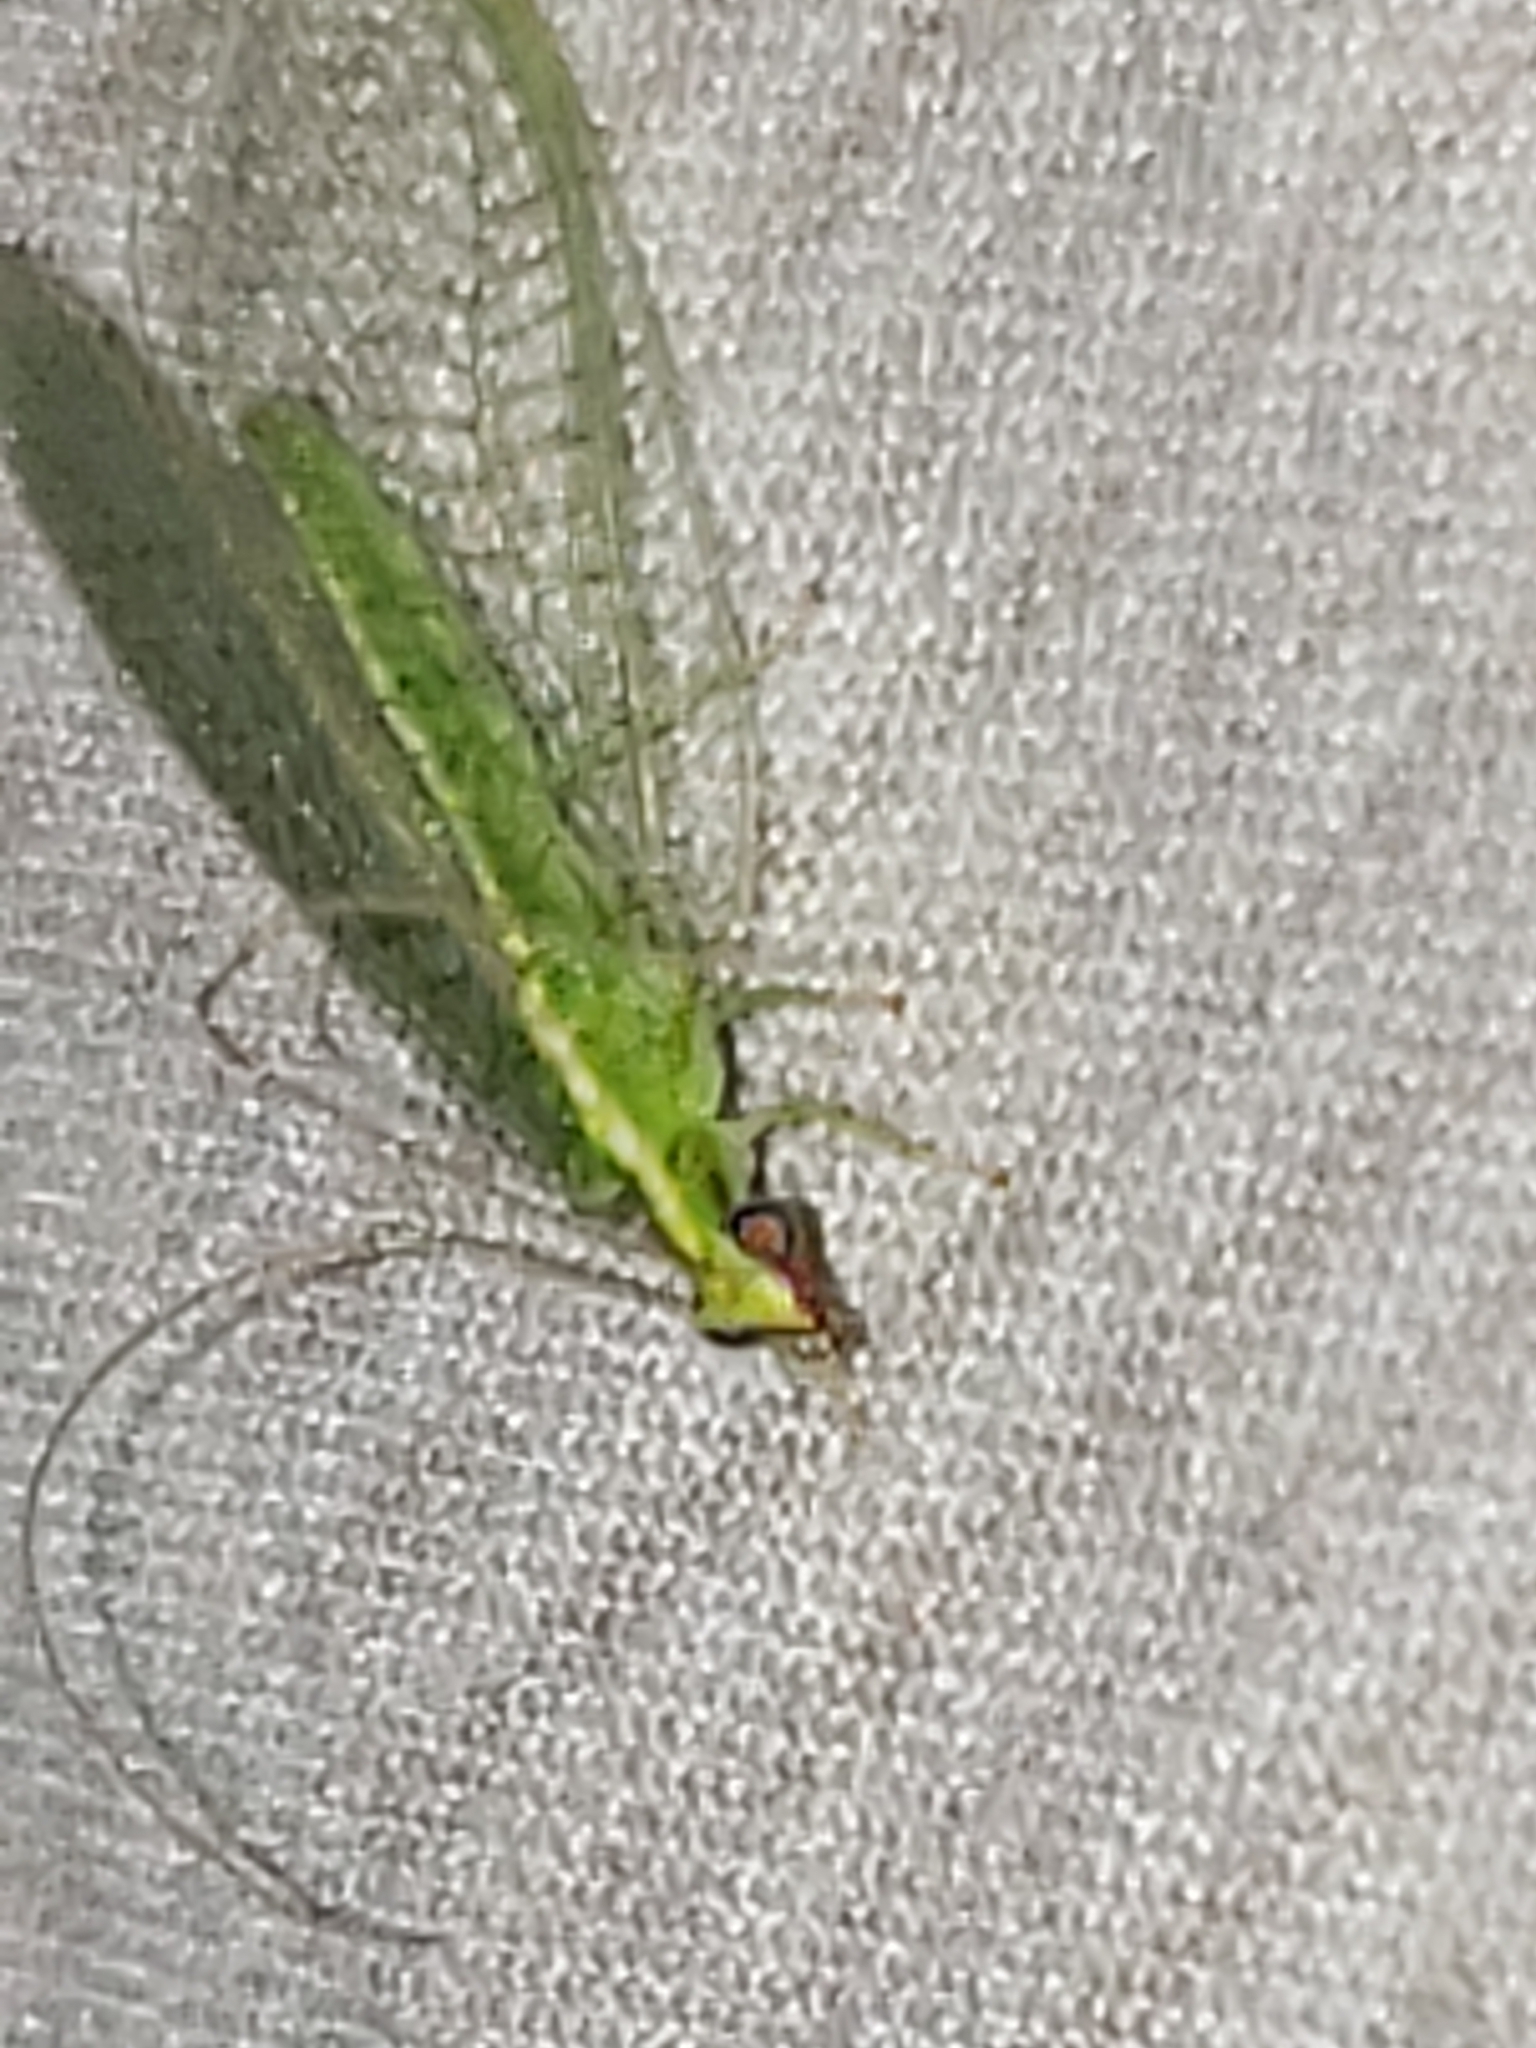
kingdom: Animalia
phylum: Arthropoda
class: Insecta
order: Neuroptera
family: Chrysopidae
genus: Chrysoperla
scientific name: Chrysoperla rufilabris
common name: Red-lipped green lacewing
